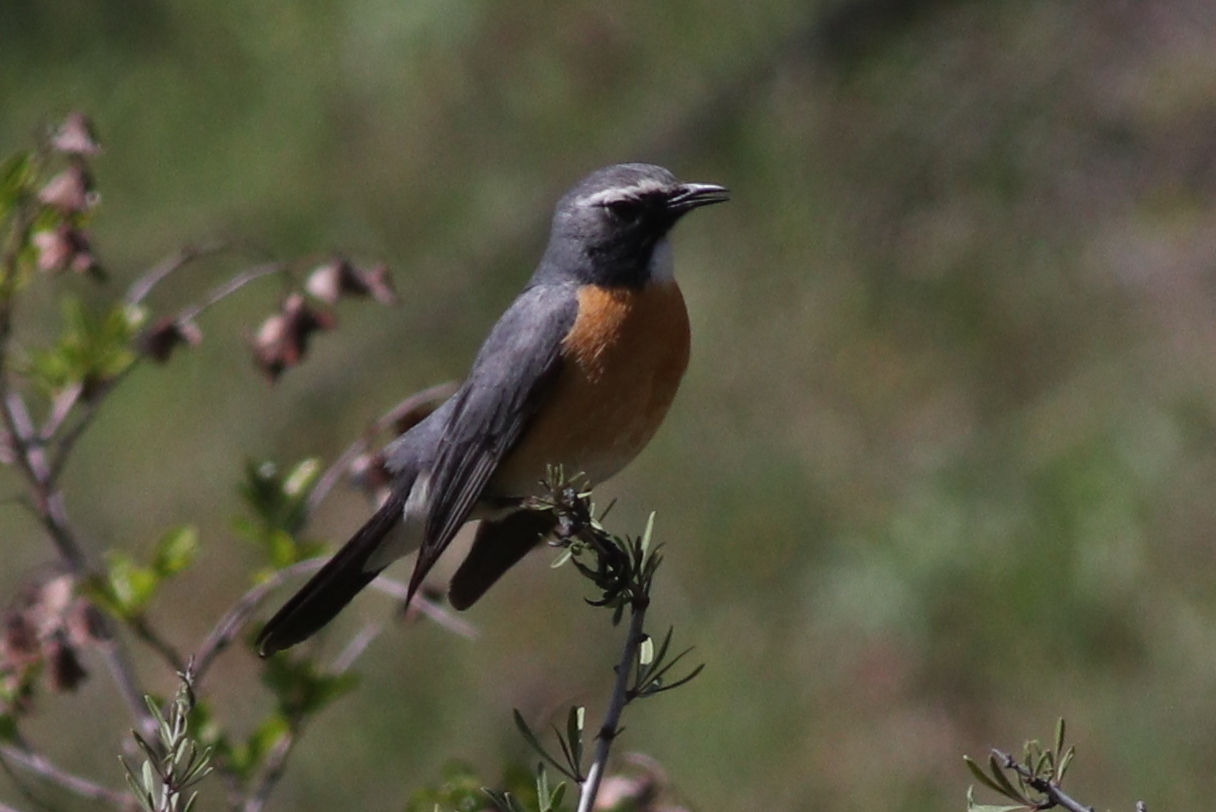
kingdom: Animalia
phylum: Chordata
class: Aves
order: Passeriformes
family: Muscicapidae
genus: Irania
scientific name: Irania gutturalis
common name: White-throated robin
